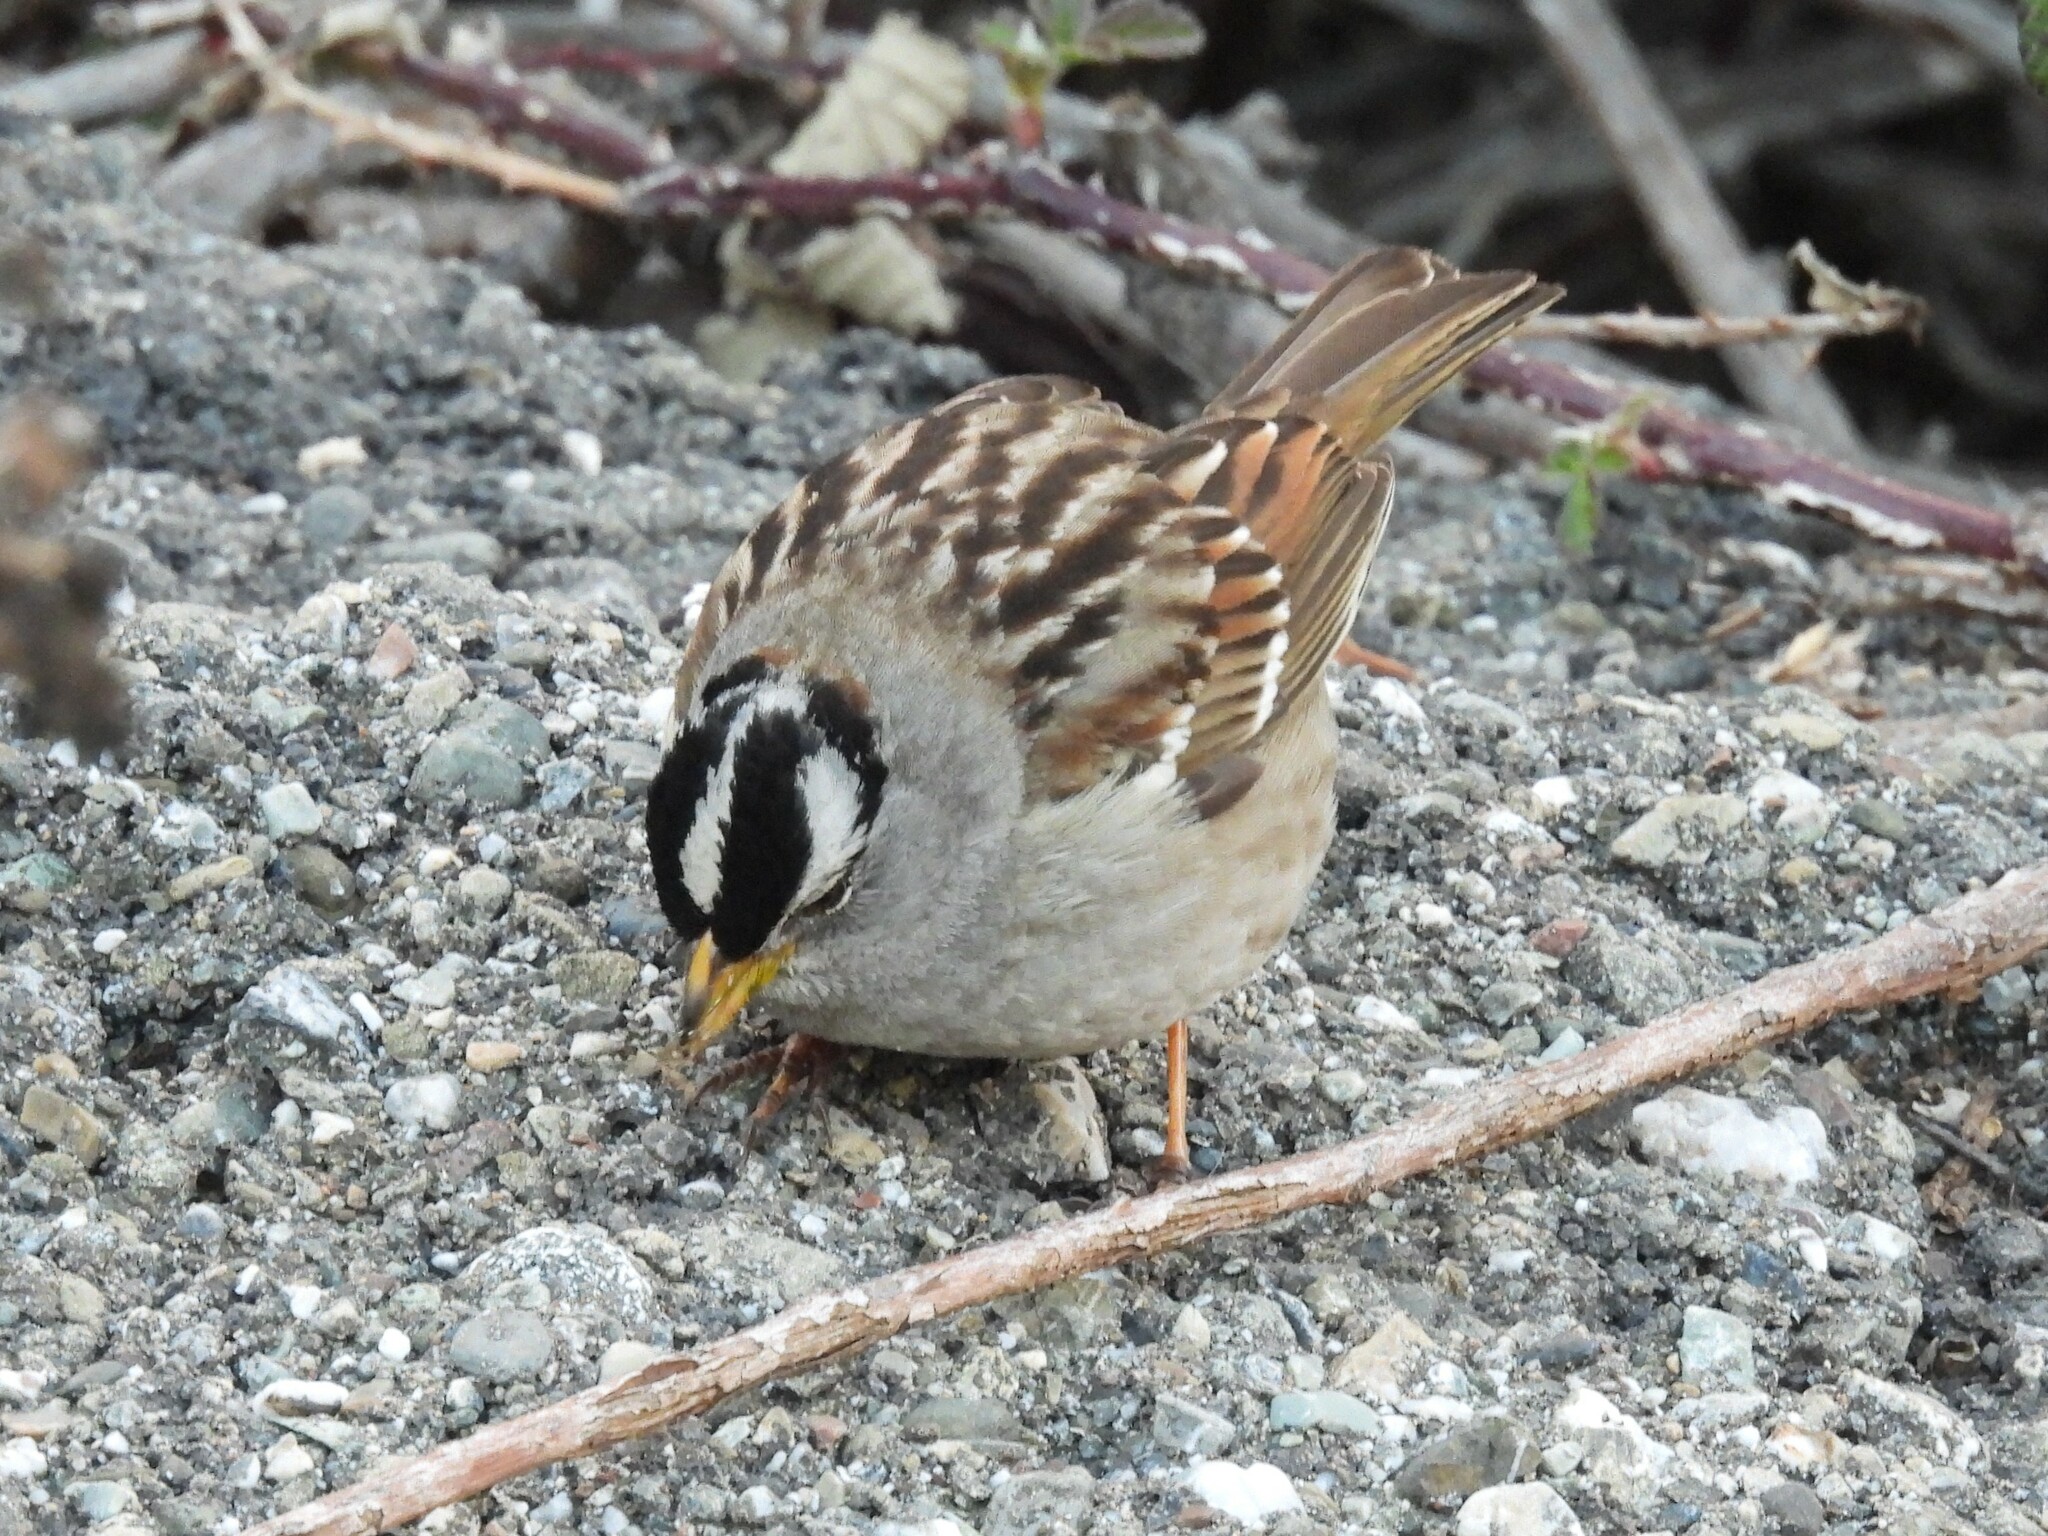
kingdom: Animalia
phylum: Chordata
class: Aves
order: Passeriformes
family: Passerellidae
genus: Zonotrichia
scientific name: Zonotrichia leucophrys
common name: White-crowned sparrow
